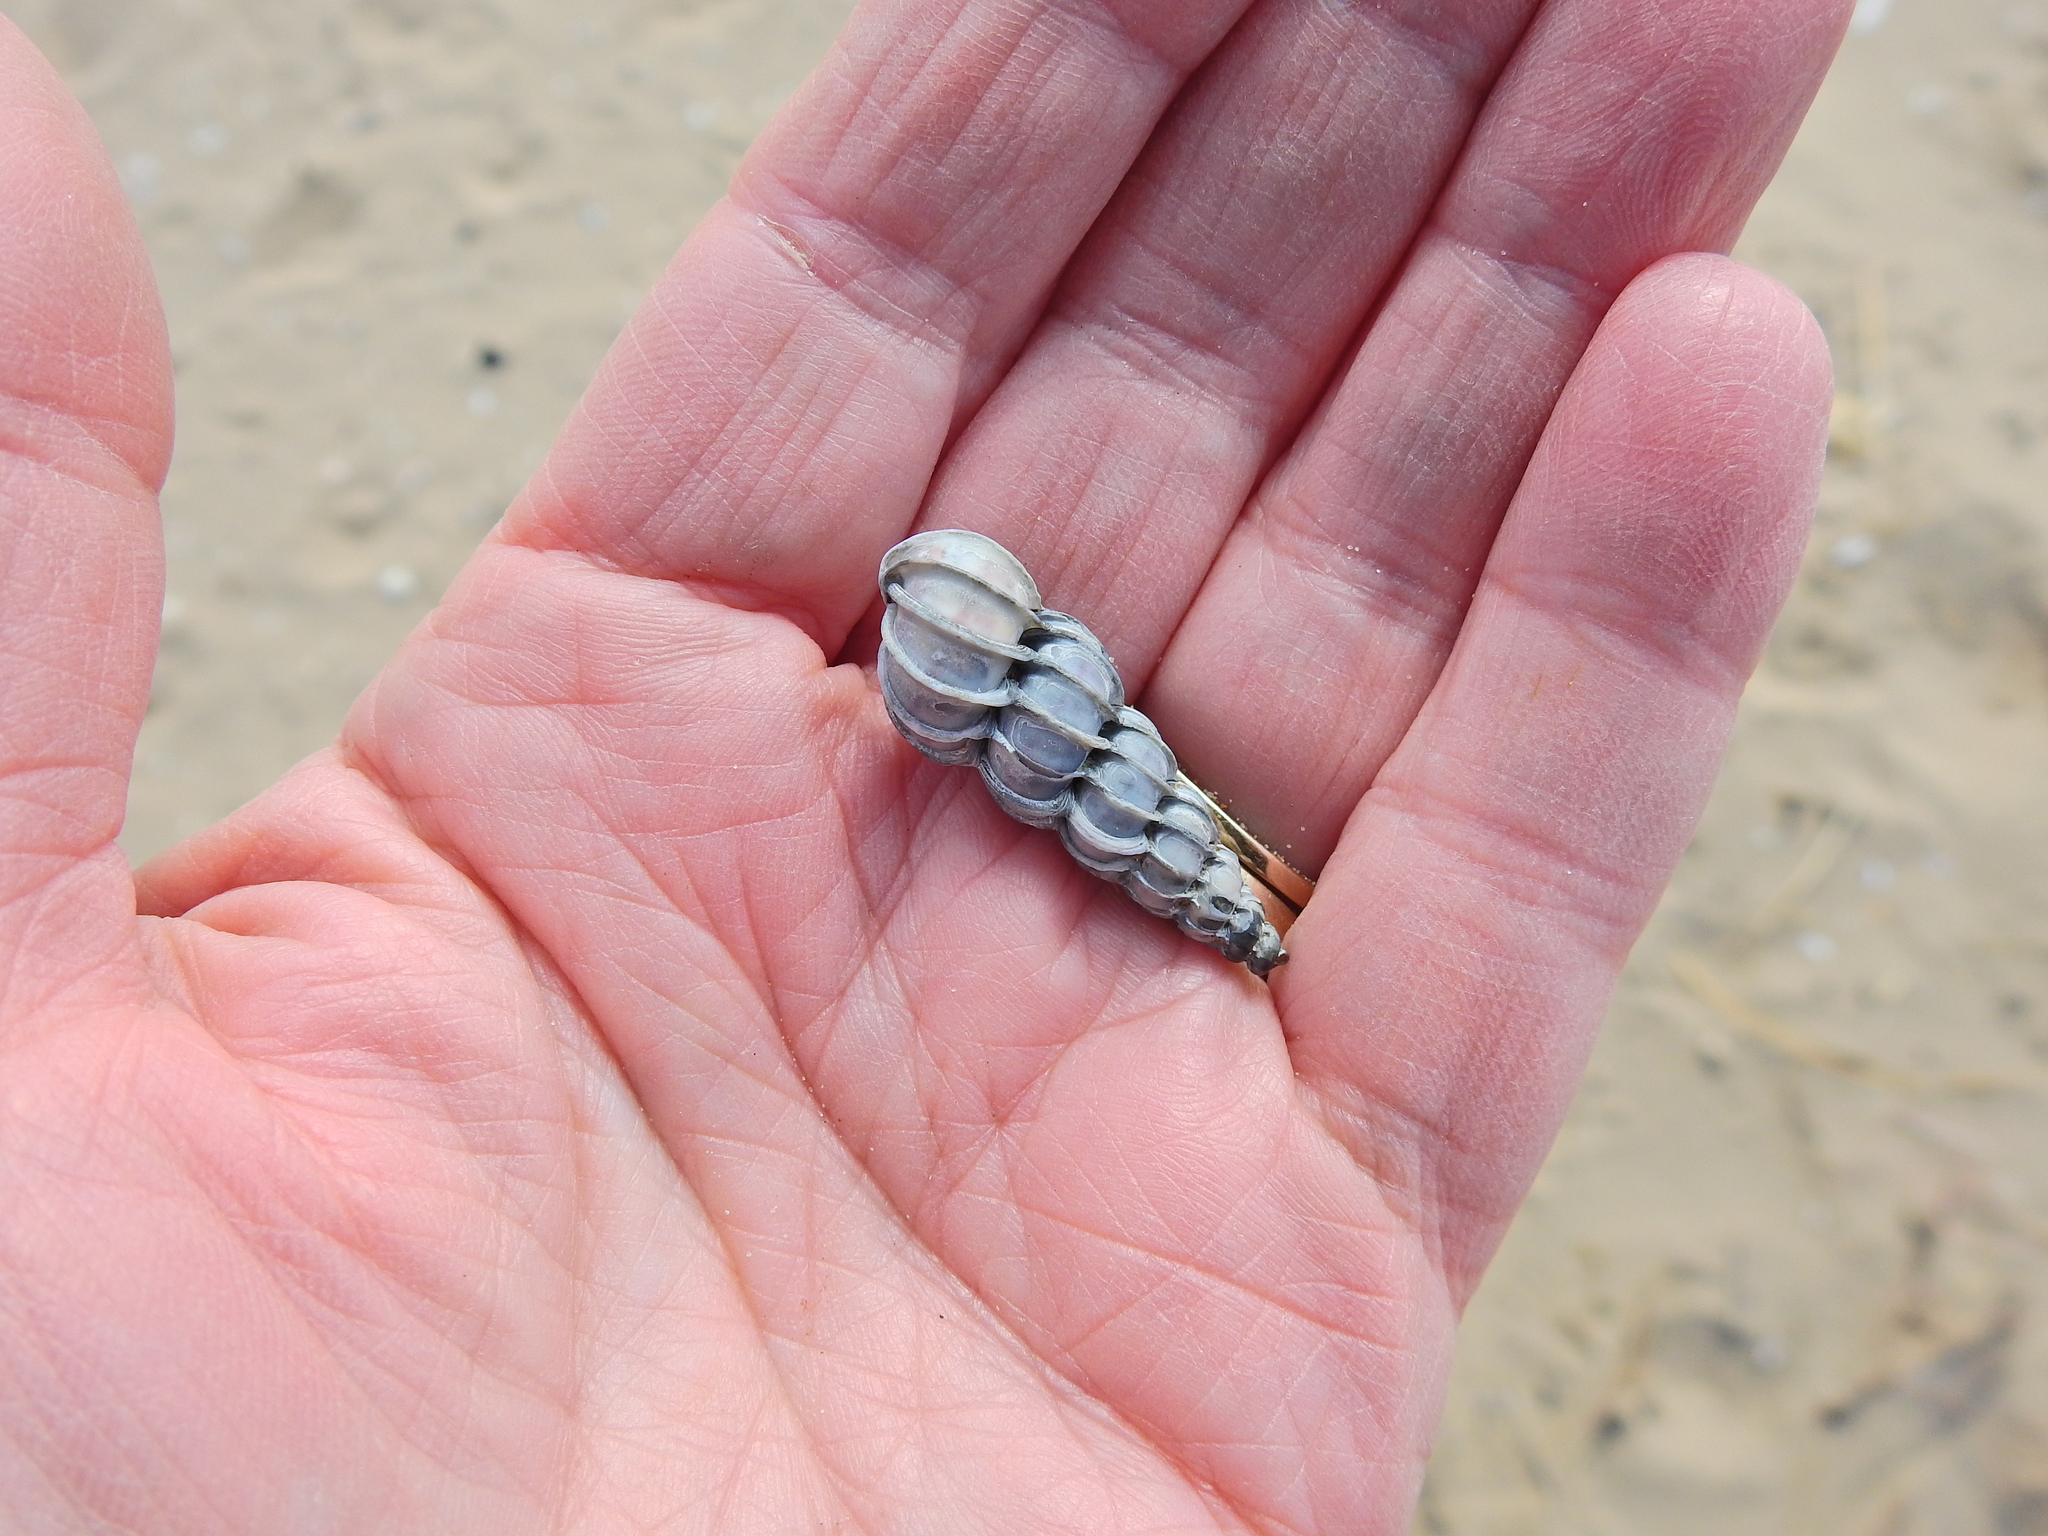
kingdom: Animalia
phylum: Mollusca
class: Gastropoda
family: Epitoniidae
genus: Epitonium
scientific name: Epitonium clathrus
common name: Common wentletrap
